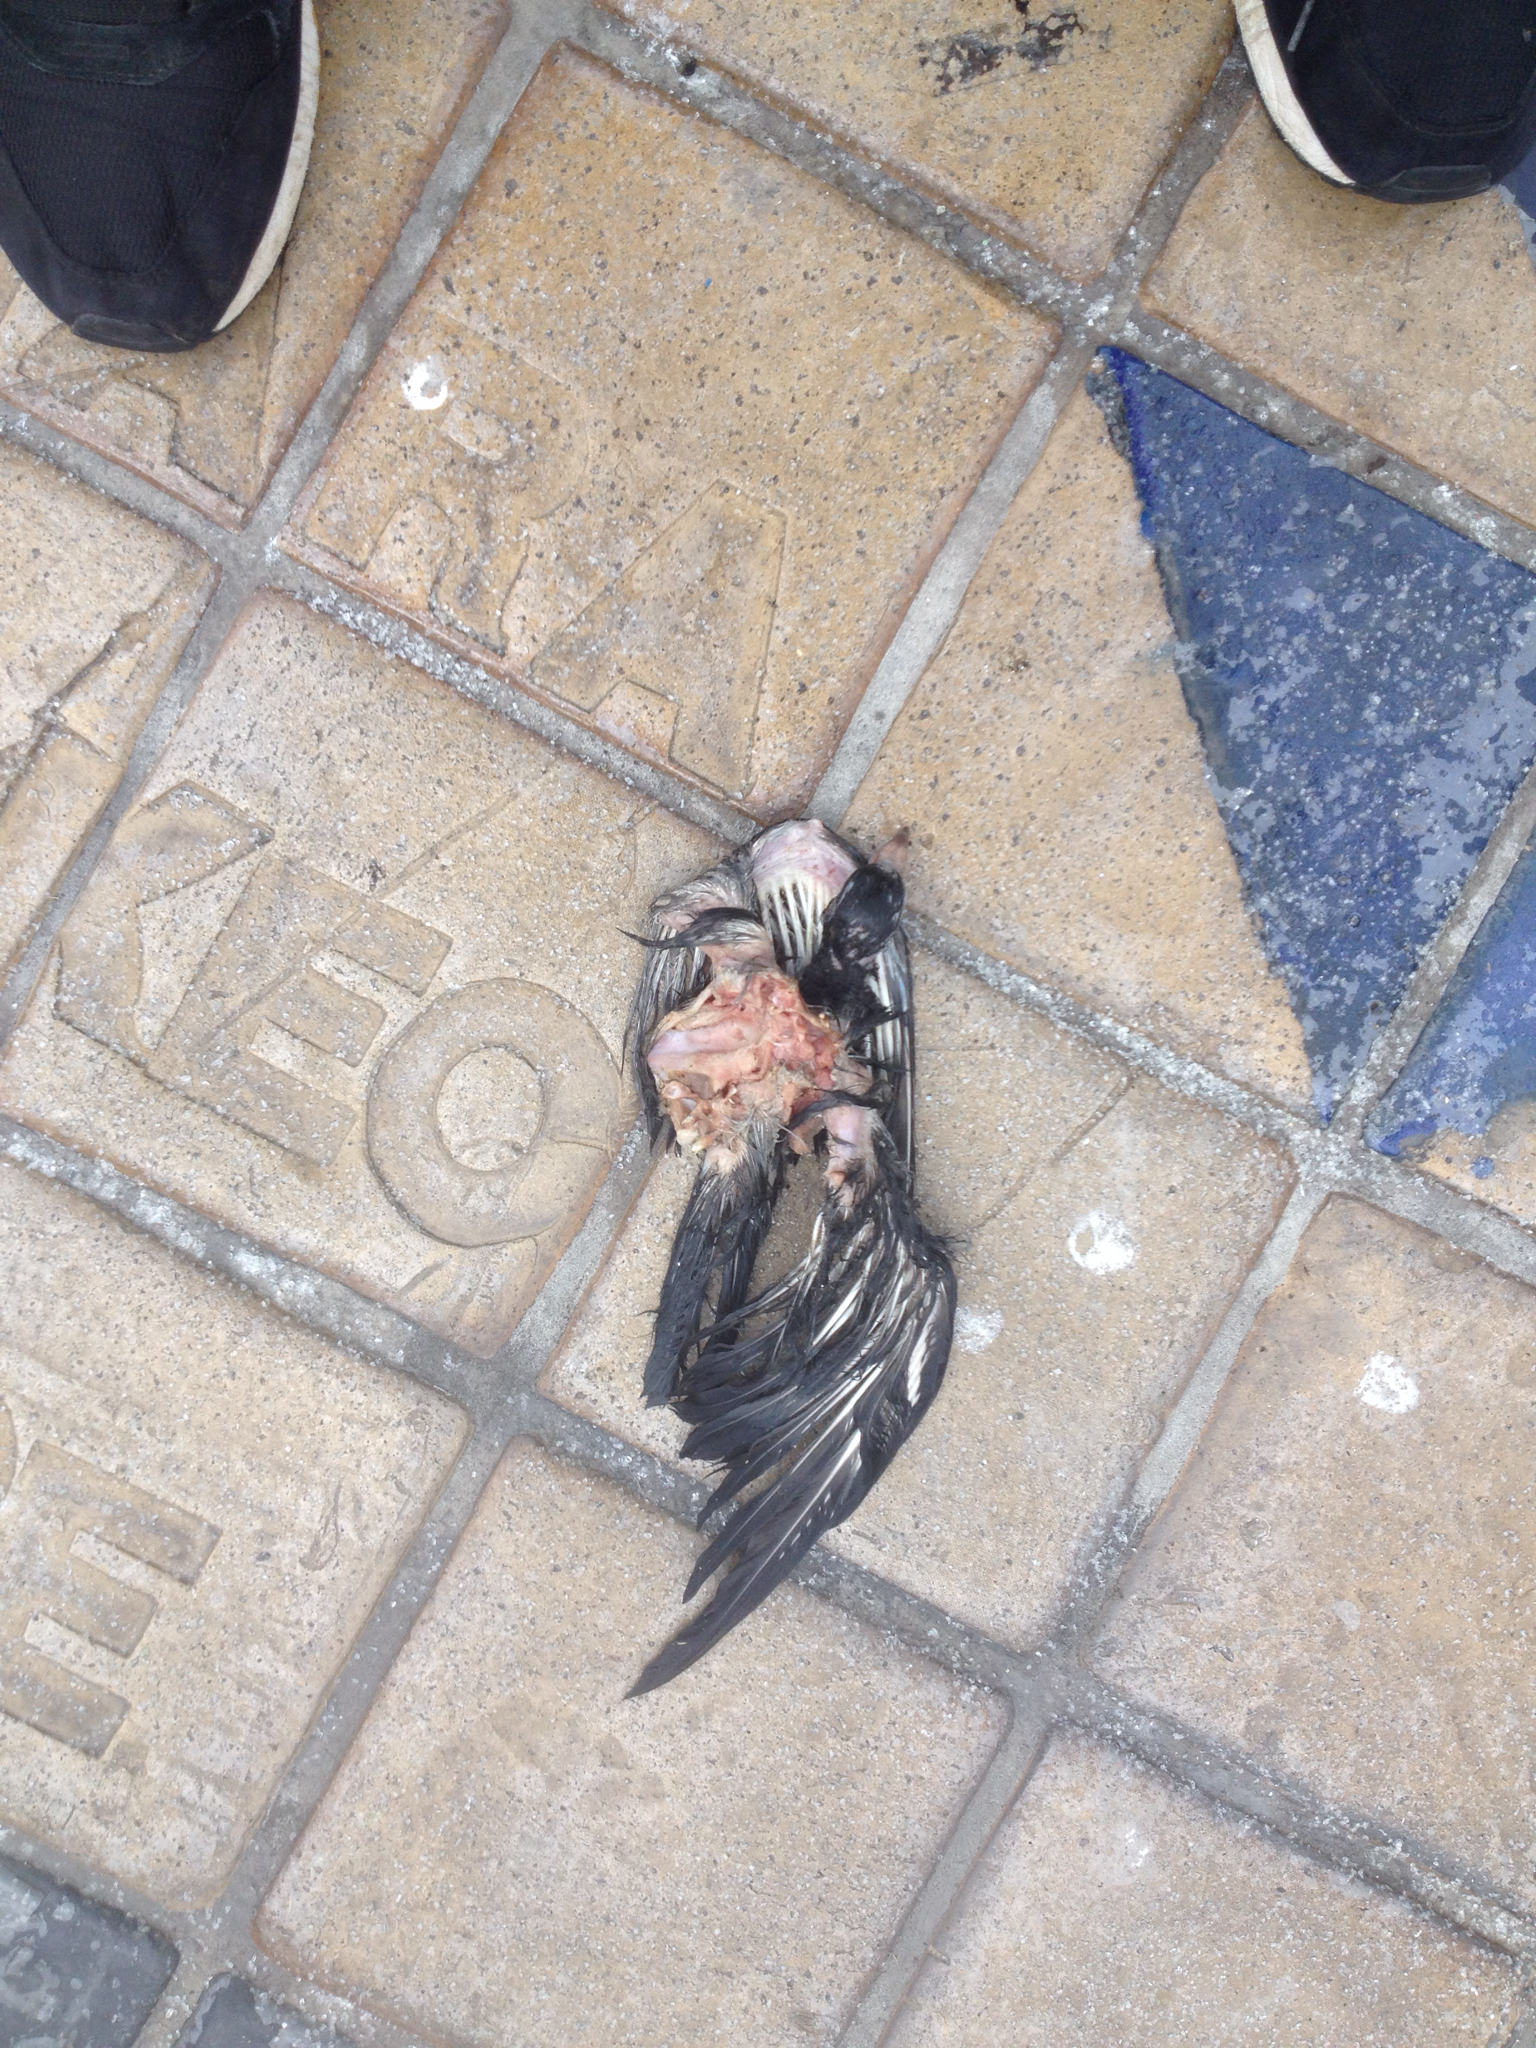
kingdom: Animalia
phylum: Chordata
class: Aves
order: Columbiformes
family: Columbidae
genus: Columba
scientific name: Columba livia
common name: Rock pigeon
